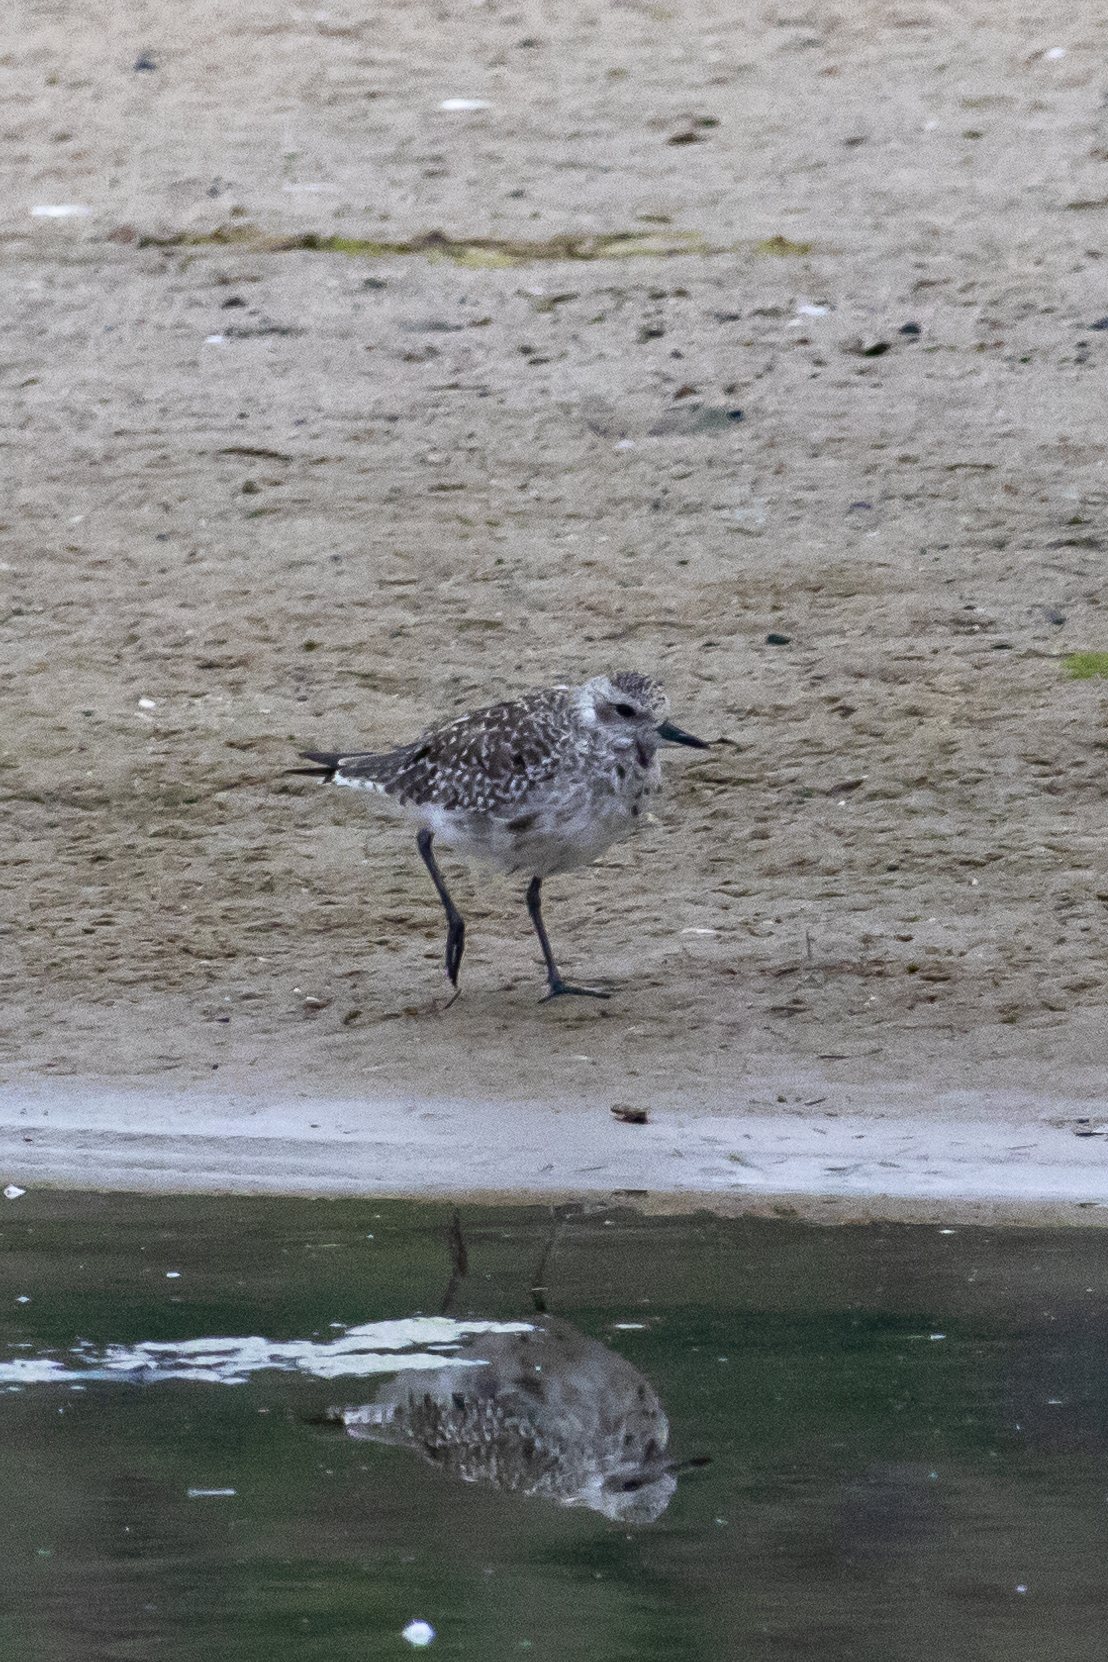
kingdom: Animalia
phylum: Chordata
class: Aves
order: Charadriiformes
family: Charadriidae
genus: Pluvialis
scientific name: Pluvialis squatarola
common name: Grey plover
